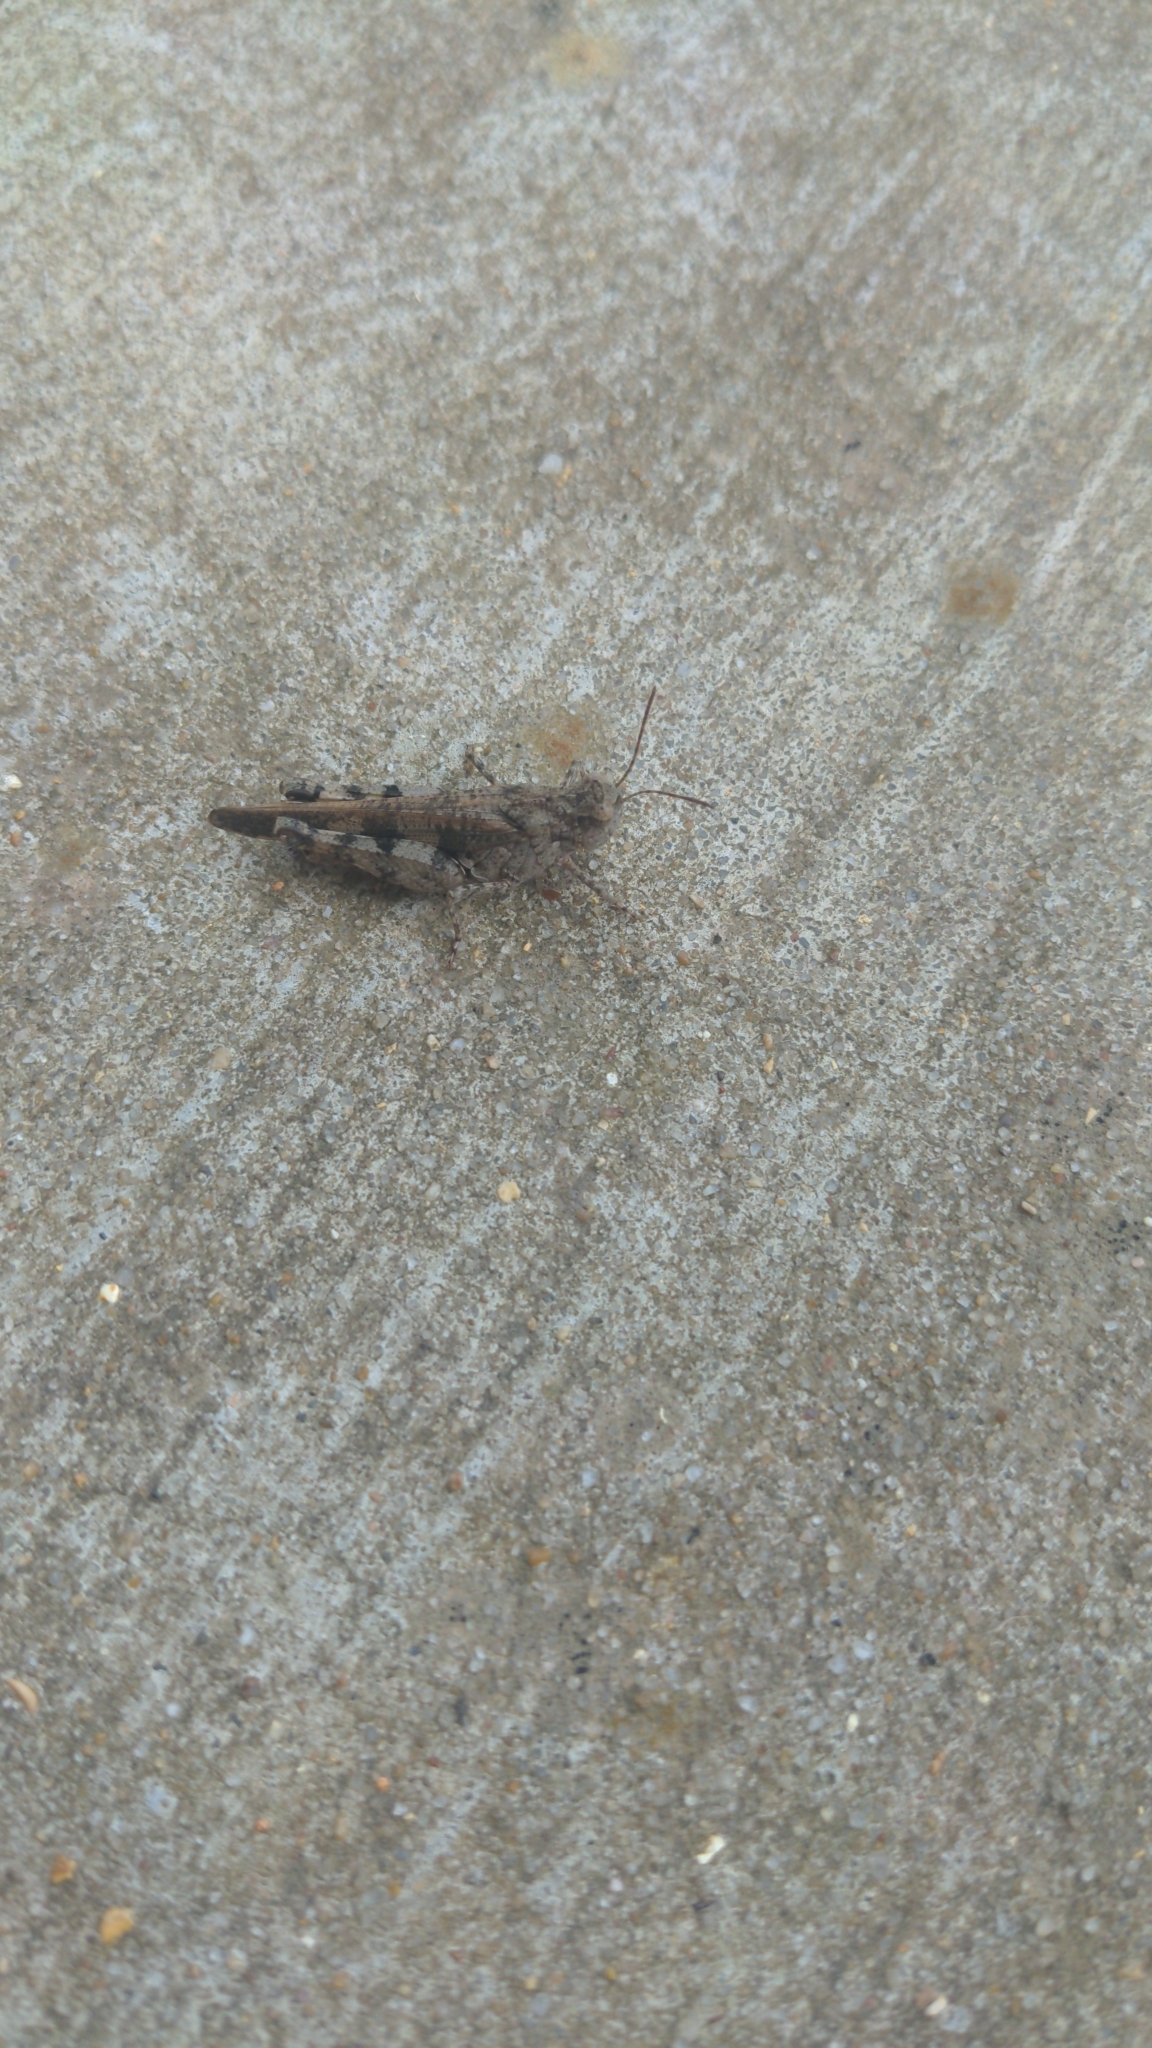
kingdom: Animalia
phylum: Arthropoda
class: Insecta
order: Orthoptera
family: Acrididae
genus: Nebulatettix
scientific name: Nebulatettix subgracilis
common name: Southwestern dusky grasshopper
